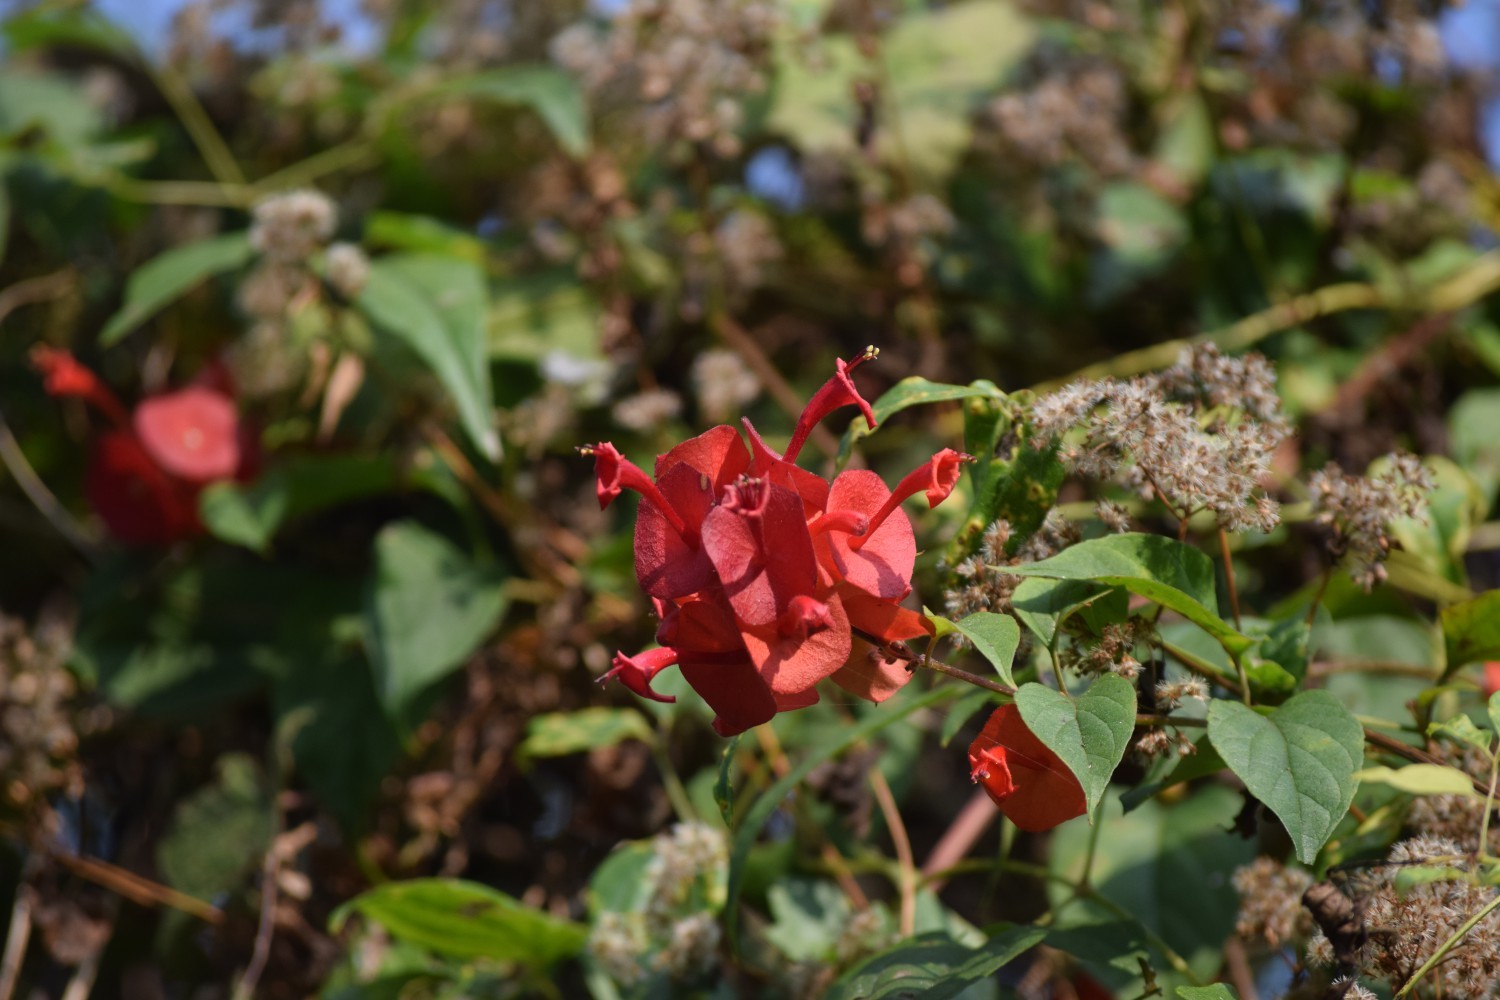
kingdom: Plantae
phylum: Tracheophyta
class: Magnoliopsida
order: Lamiales
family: Lamiaceae
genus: Holmskioldia
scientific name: Holmskioldia sanguinea
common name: Chinese hatplant
